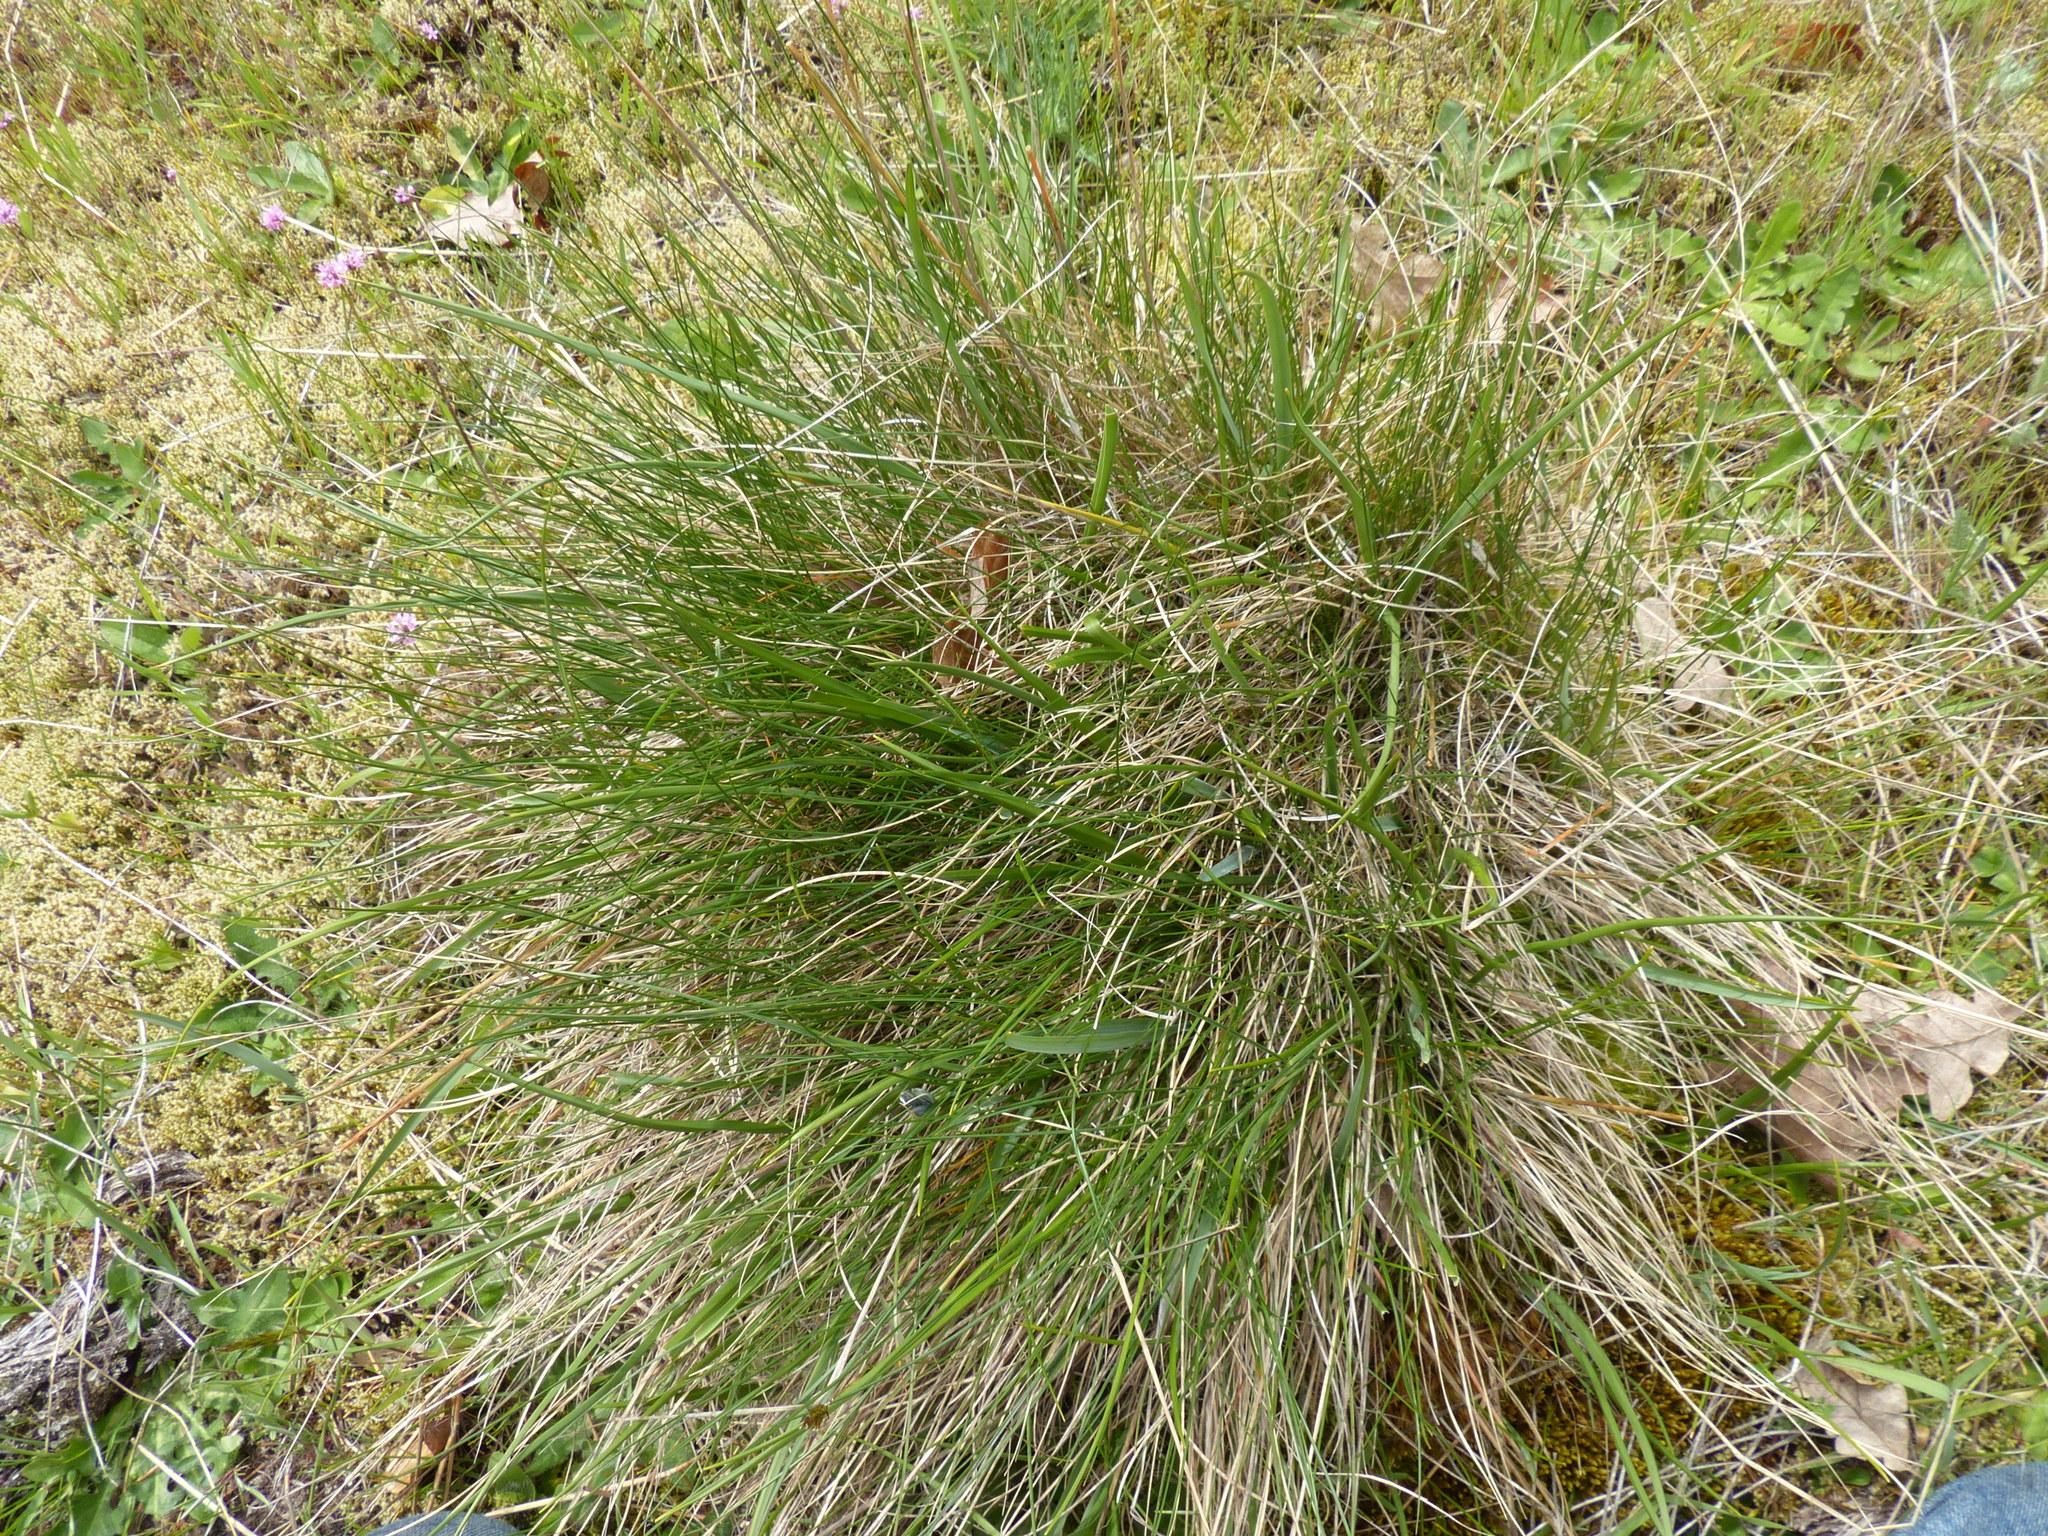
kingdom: Plantae
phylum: Tracheophyta
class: Liliopsida
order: Poales
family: Poaceae
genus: Festuca
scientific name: Festuca idahoensis
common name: Idaho fescue
